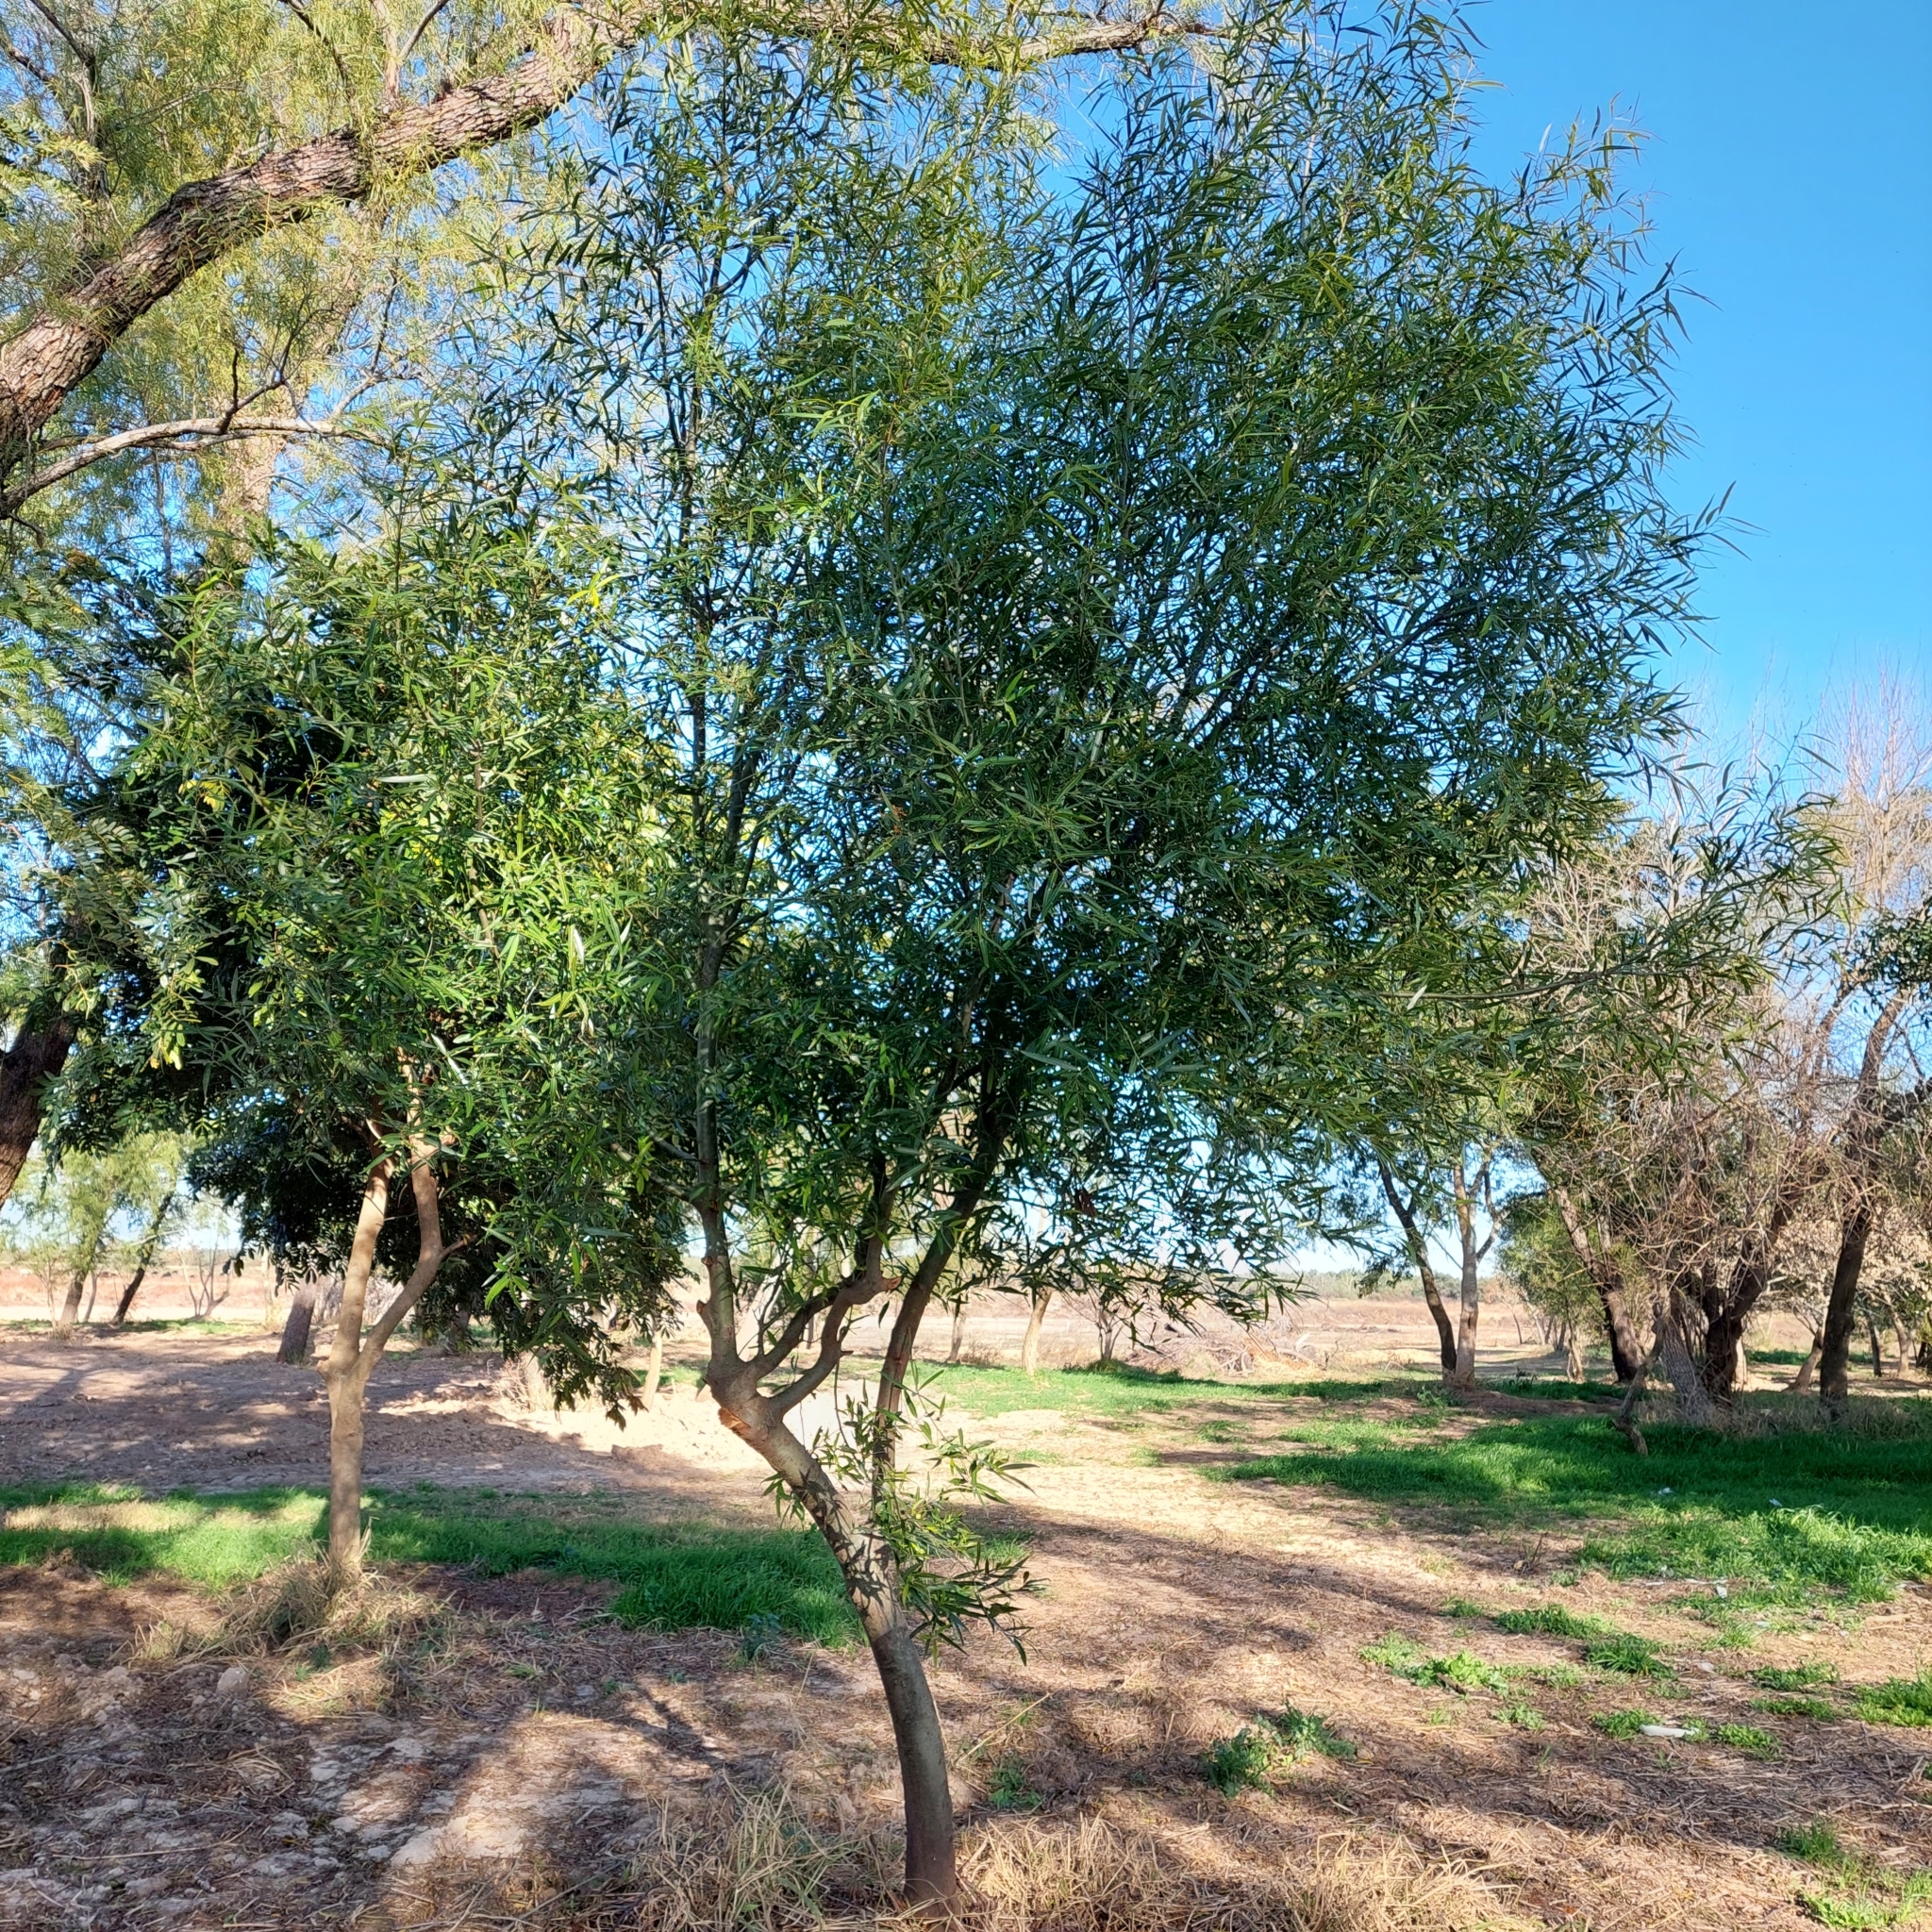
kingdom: Plantae
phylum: Tracheophyta
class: Magnoliopsida
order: Laurales
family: Lauraceae
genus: Nectandra
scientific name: Nectandra angustifolia
